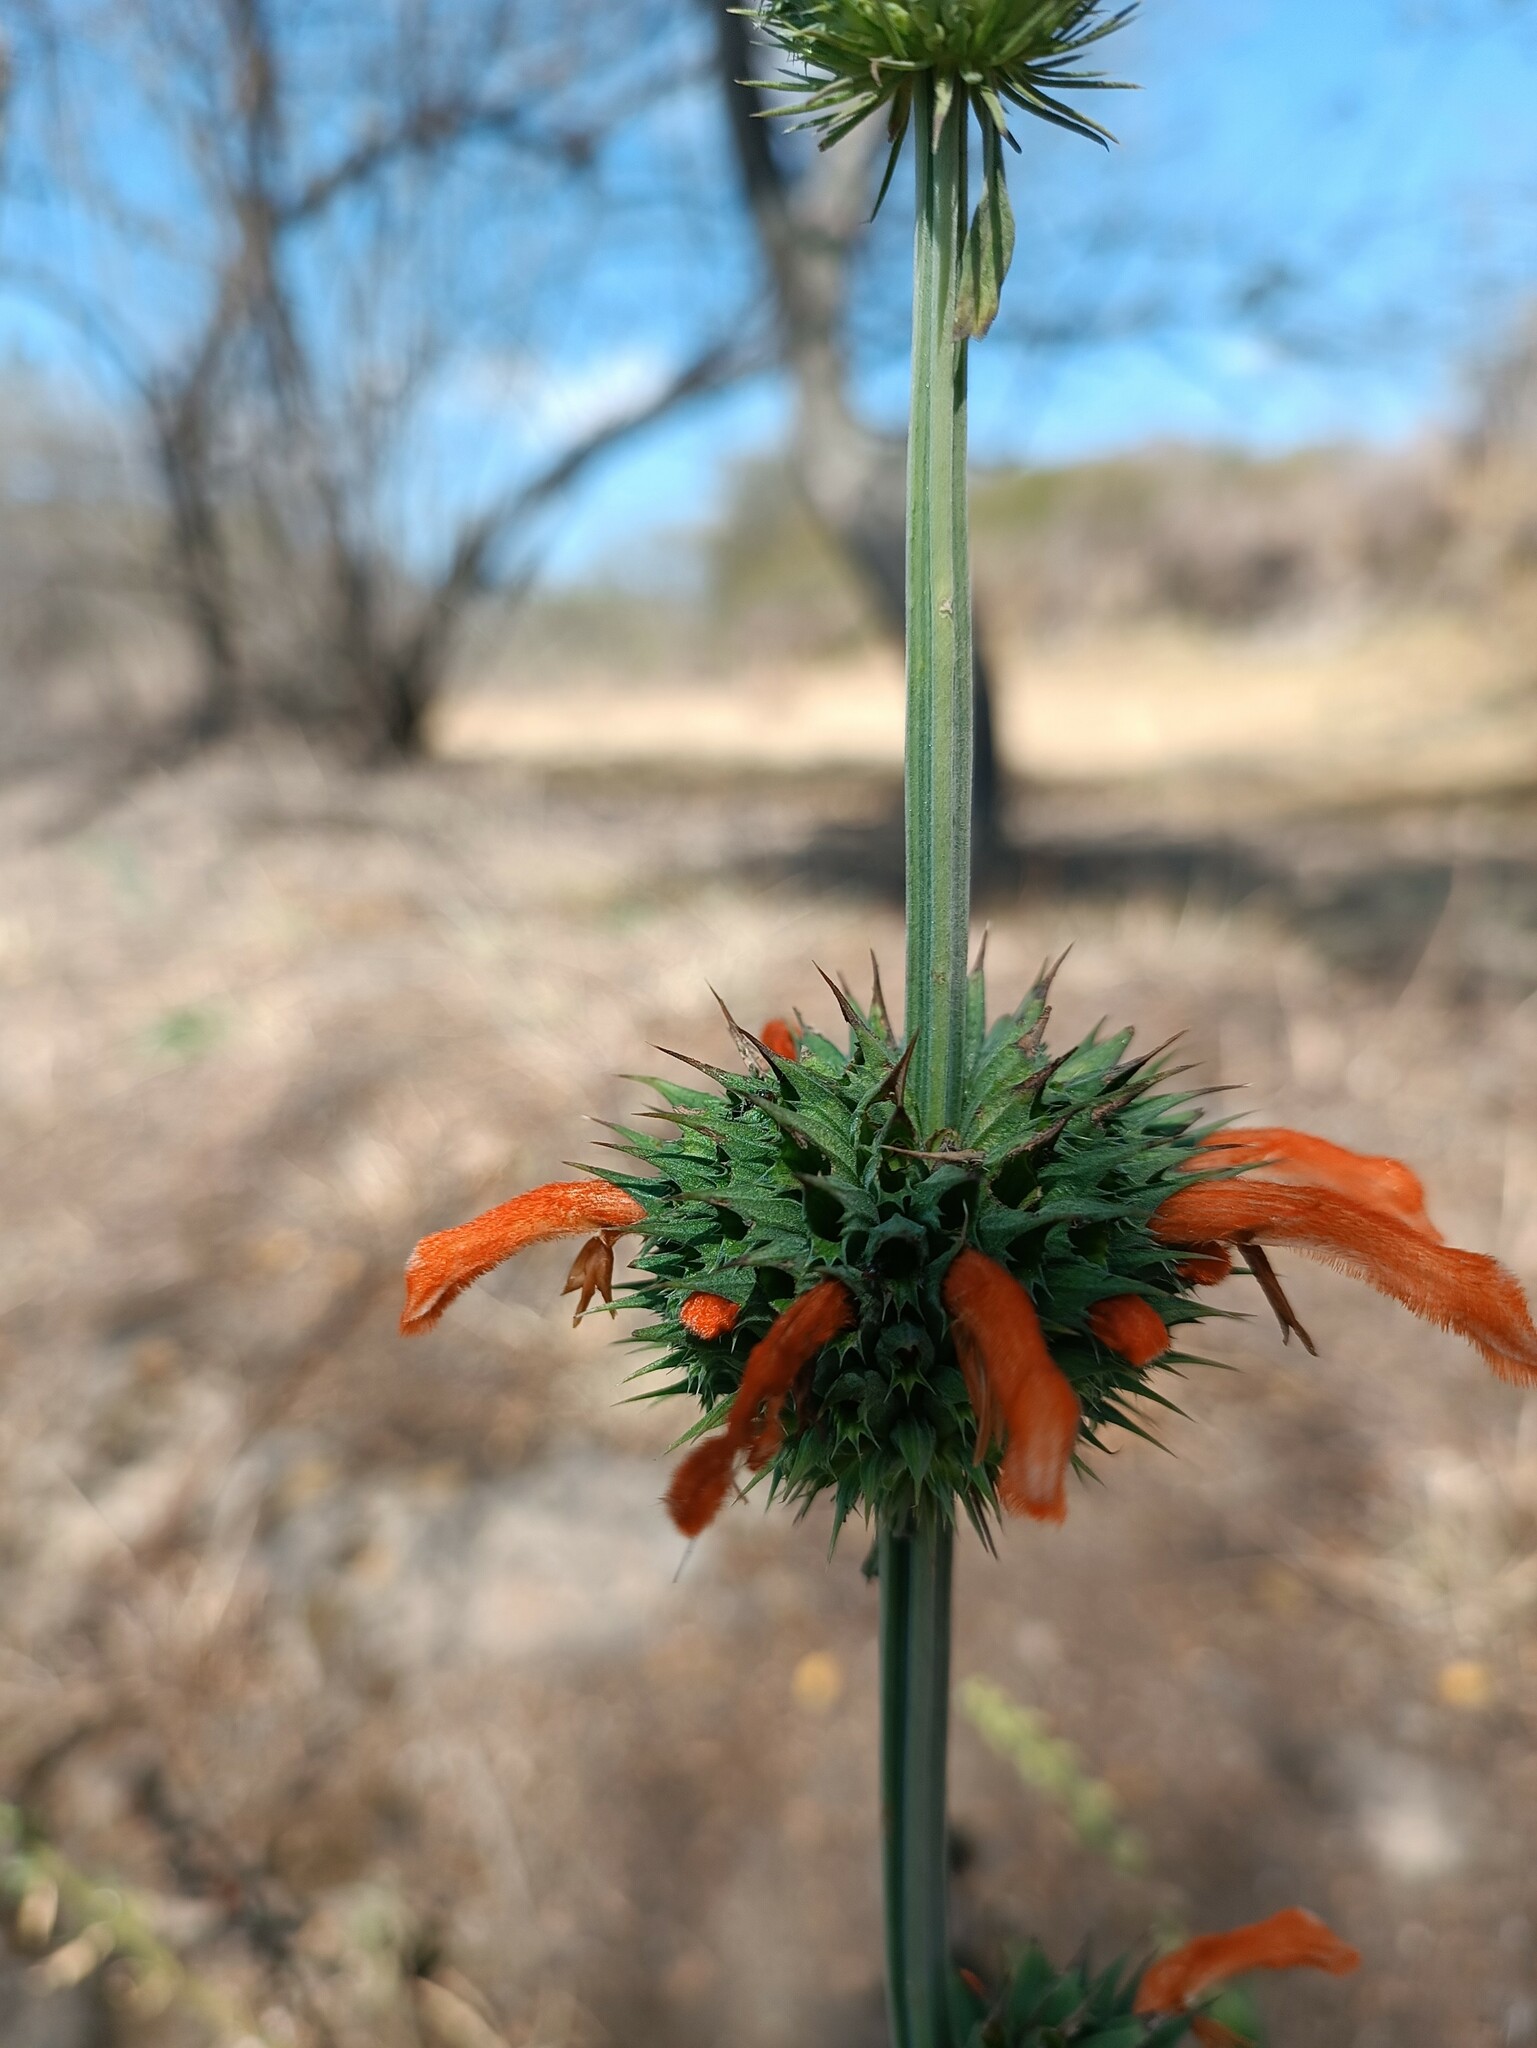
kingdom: Plantae
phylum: Tracheophyta
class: Magnoliopsida
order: Lamiales
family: Lamiaceae
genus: Leonotis
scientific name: Leonotis nepetifolia
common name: Christmas candlestick
